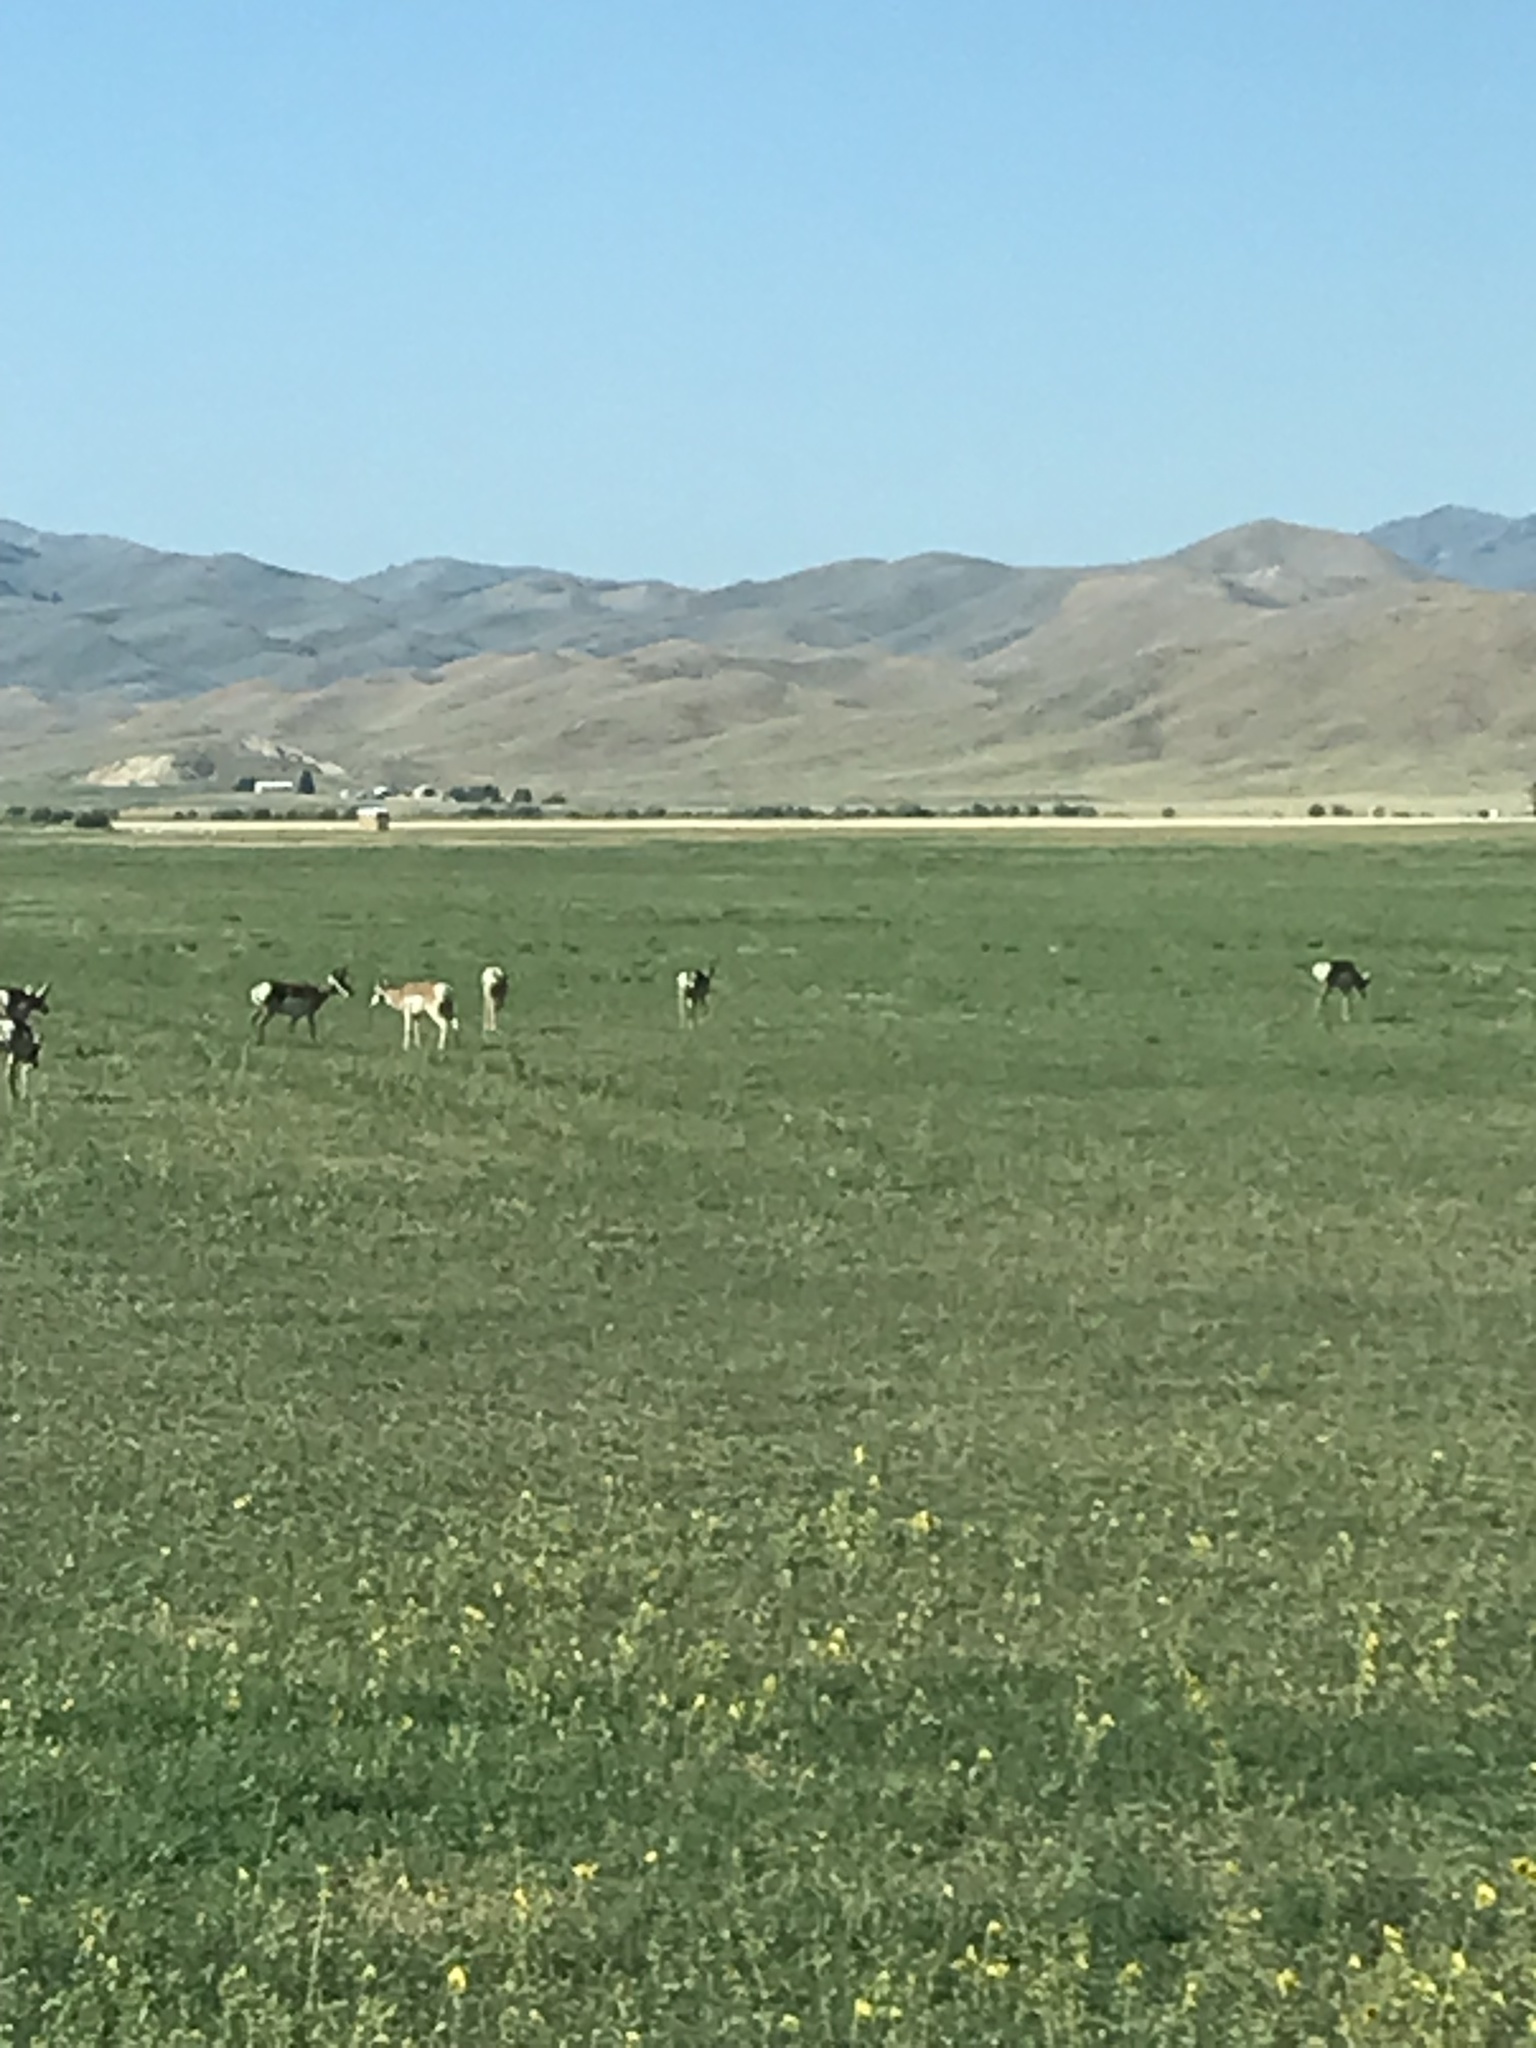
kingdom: Animalia
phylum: Chordata
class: Mammalia
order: Artiodactyla
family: Antilocapridae
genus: Antilocapra
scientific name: Antilocapra americana
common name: Pronghorn
